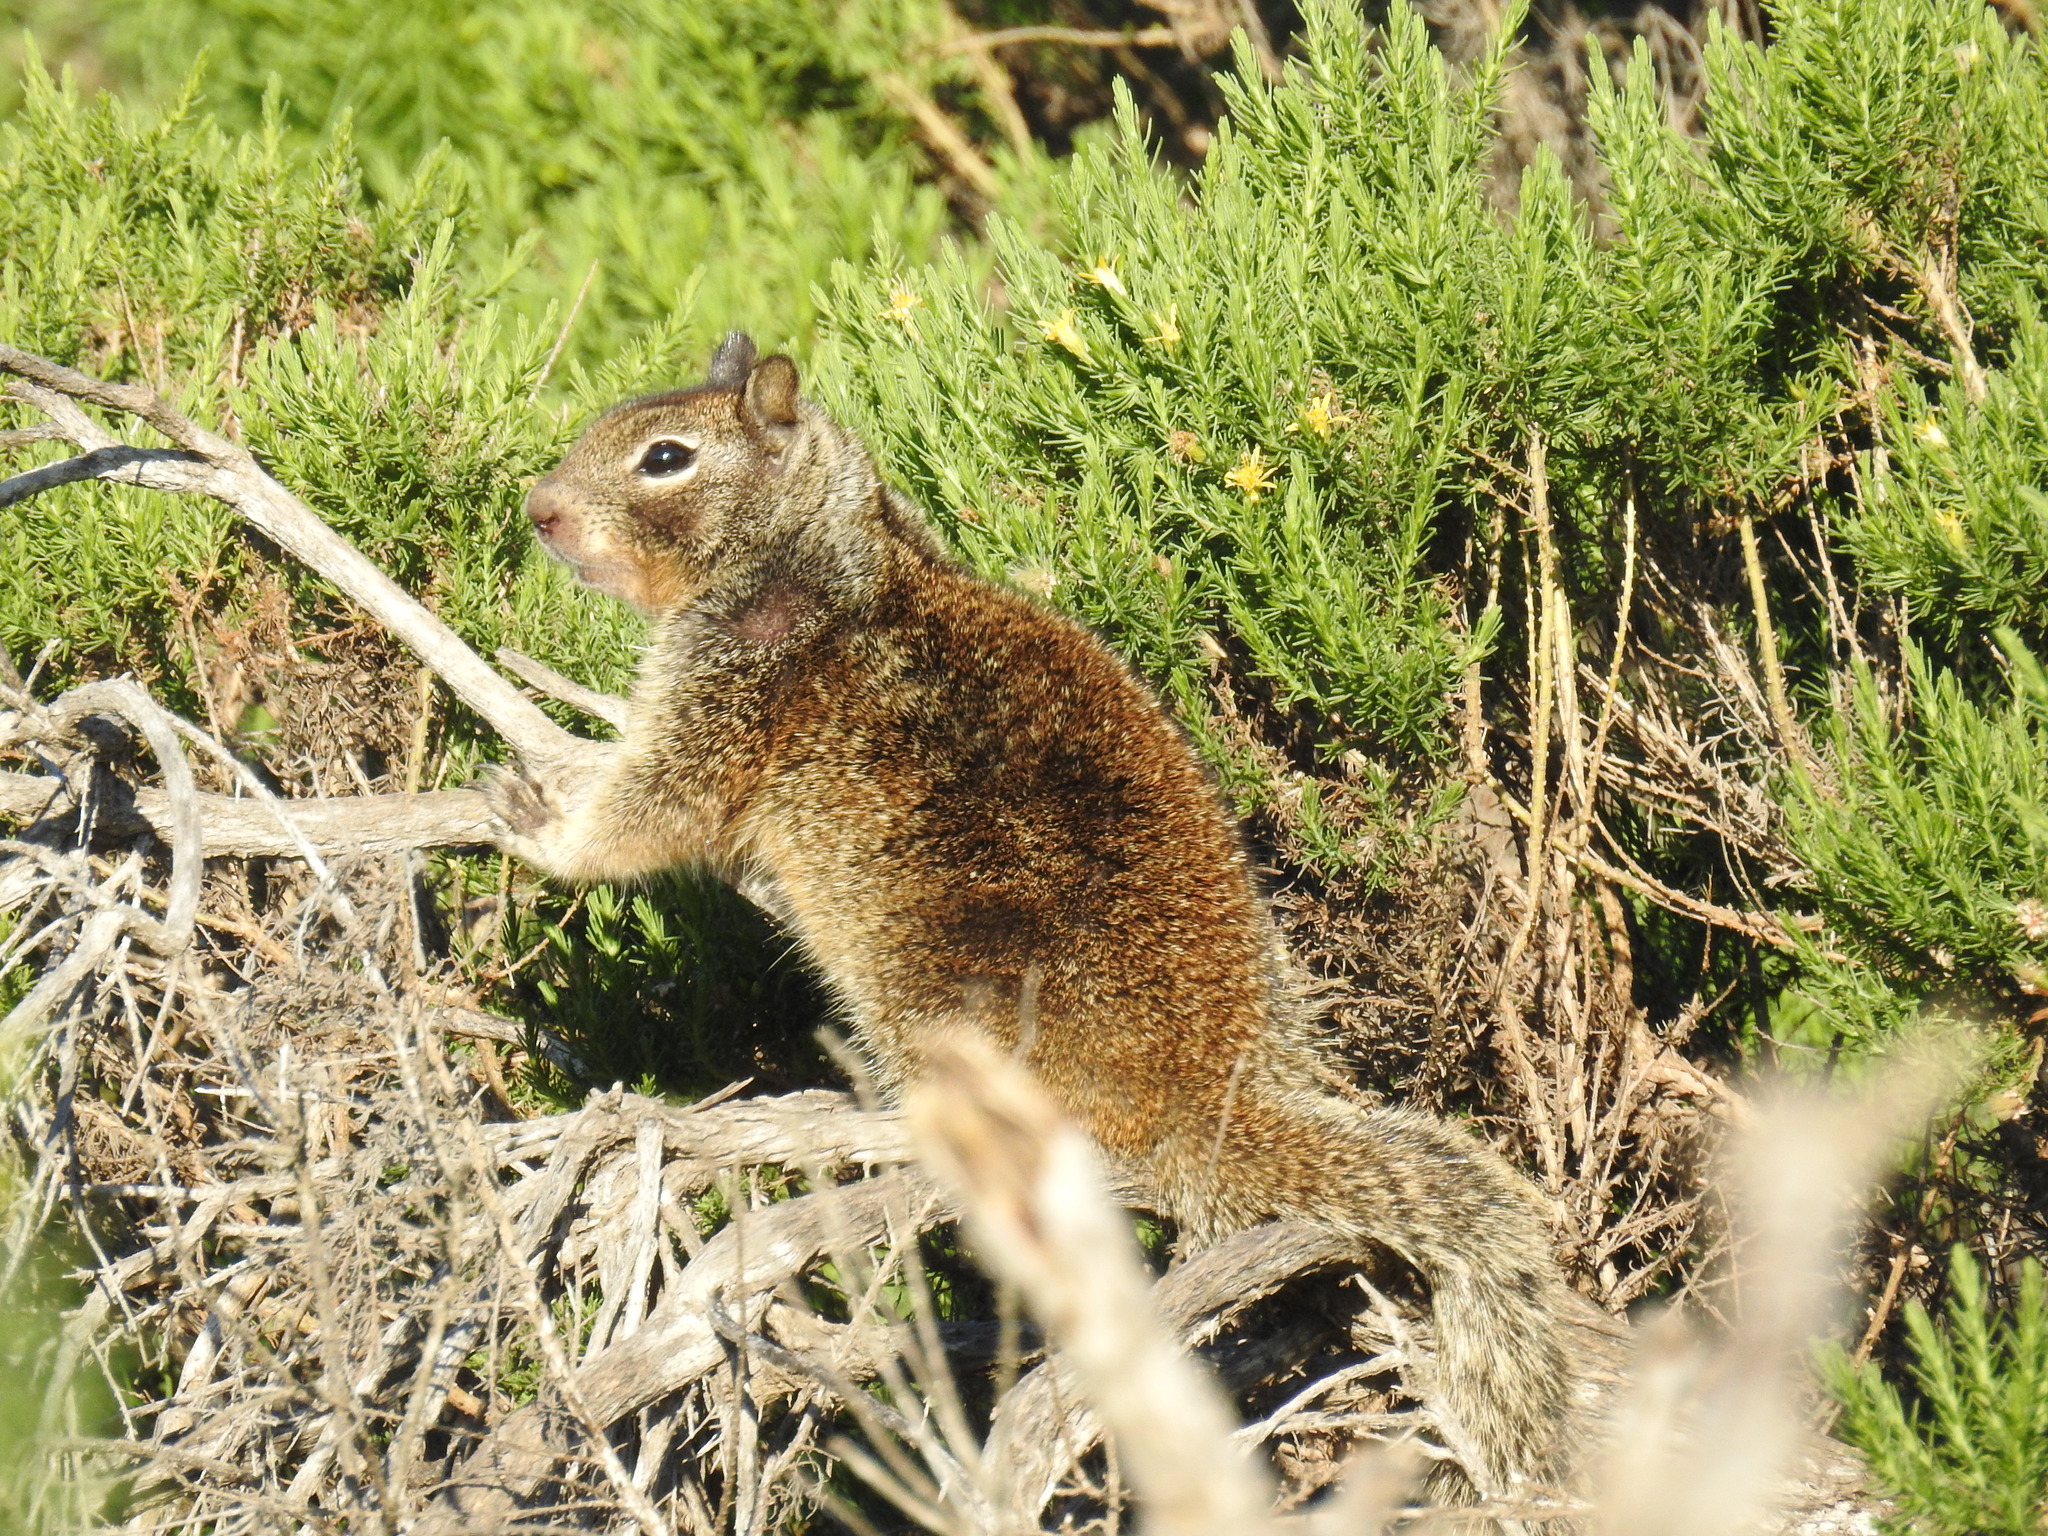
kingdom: Animalia
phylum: Chordata
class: Mammalia
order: Rodentia
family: Sciuridae
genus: Otospermophilus
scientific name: Otospermophilus beecheyi
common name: California ground squirrel
